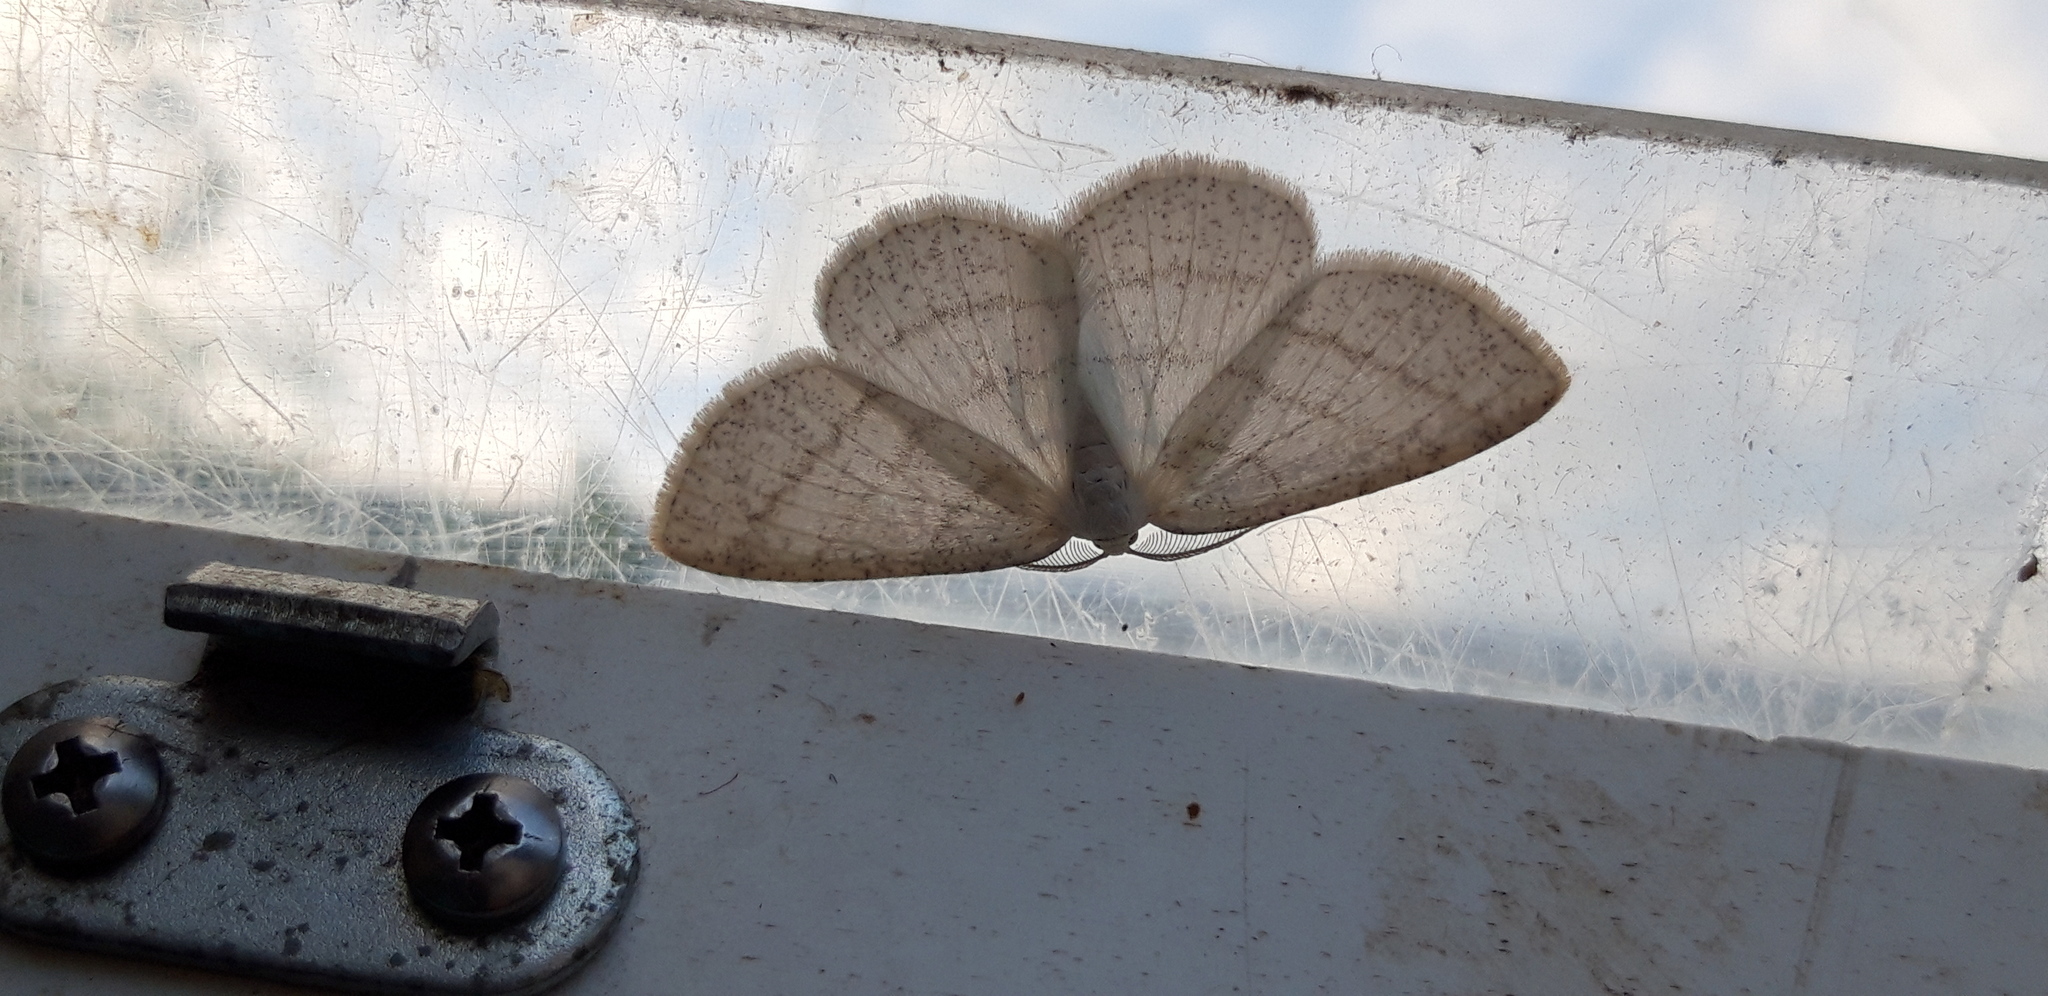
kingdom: Animalia
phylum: Arthropoda
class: Insecta
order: Lepidoptera
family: Geometridae
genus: Cabera
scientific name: Cabera pusaria
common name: Common white wave
